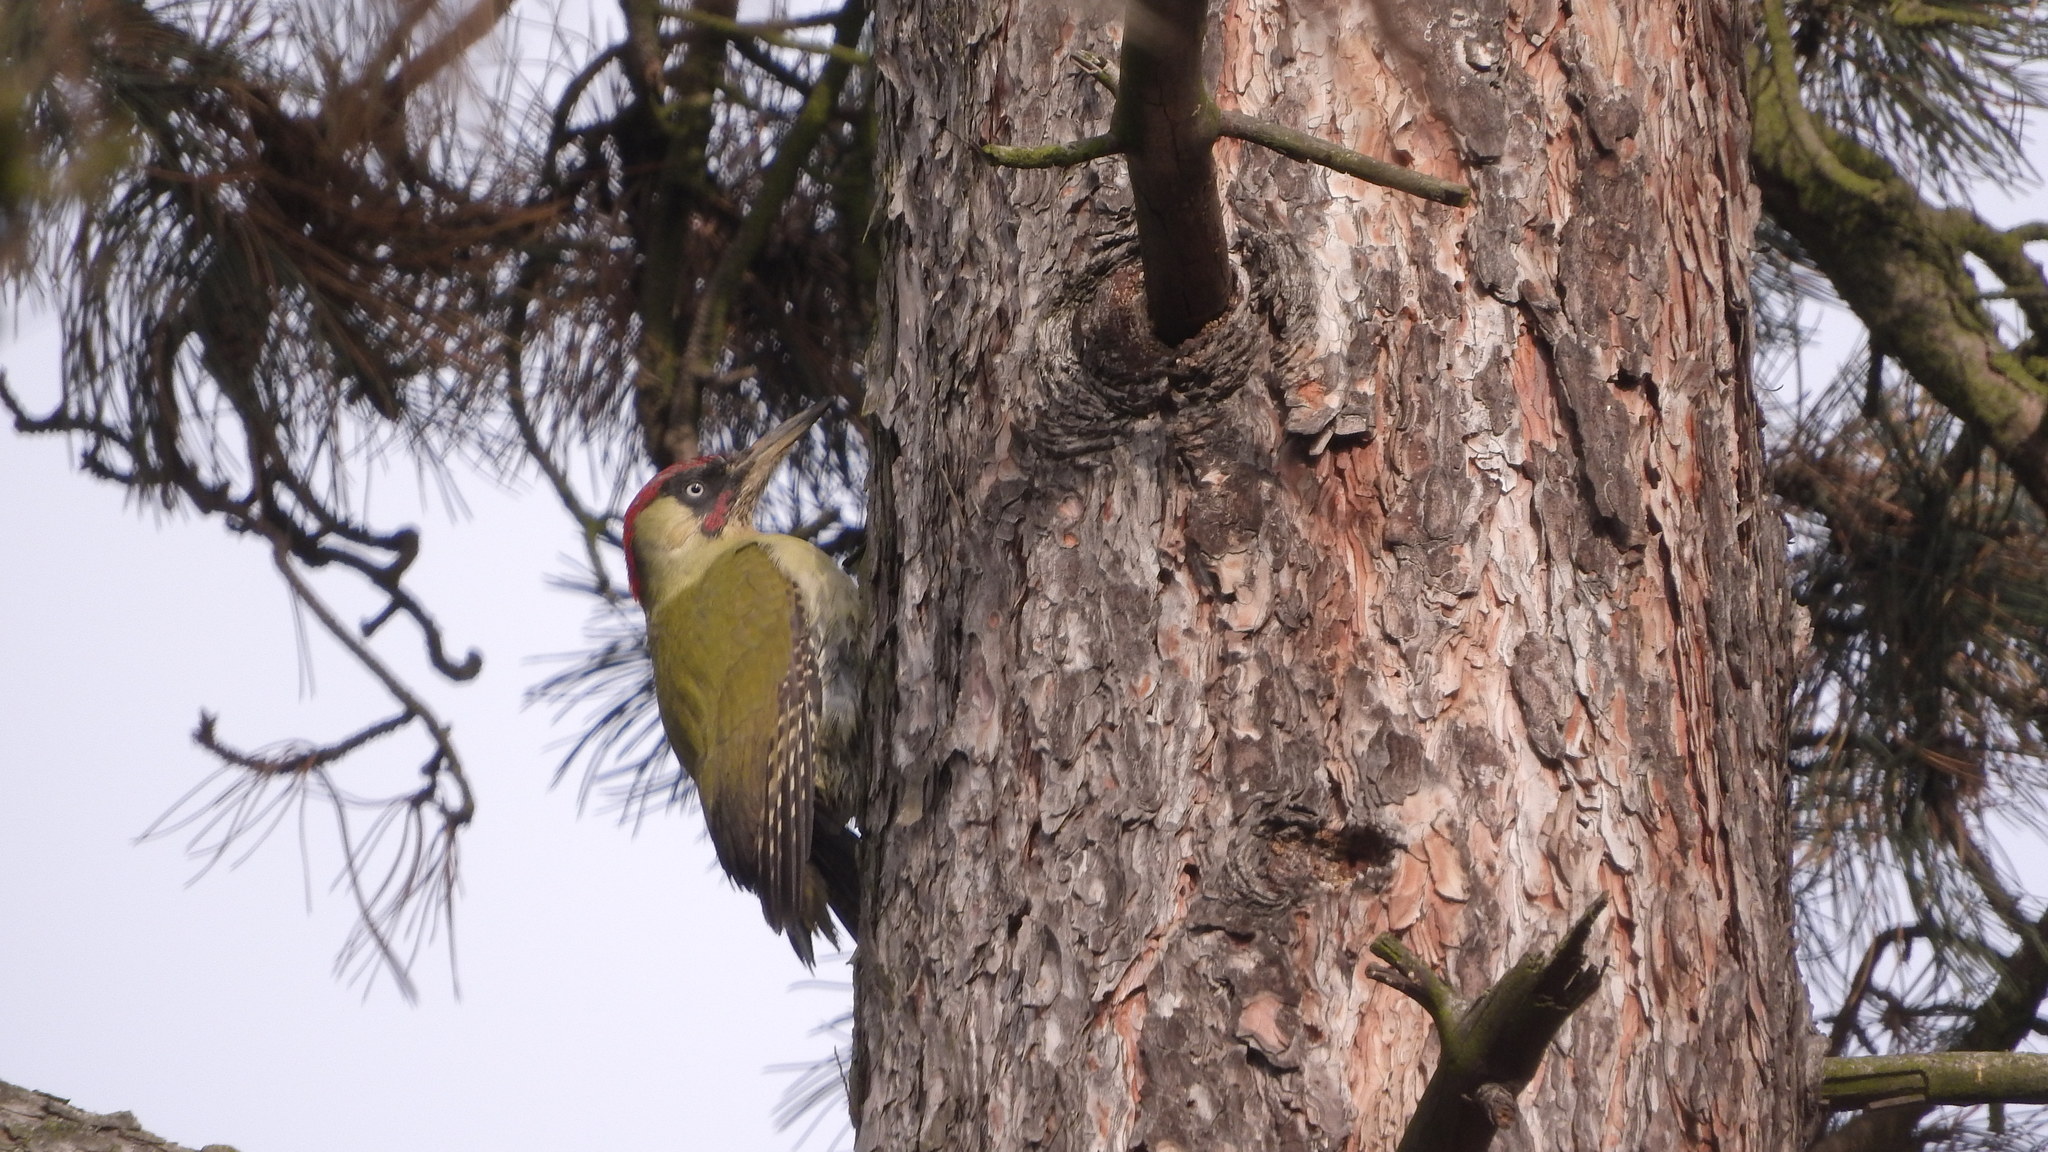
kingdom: Animalia
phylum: Chordata
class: Aves
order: Piciformes
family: Picidae
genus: Picus
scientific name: Picus viridis
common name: European green woodpecker
